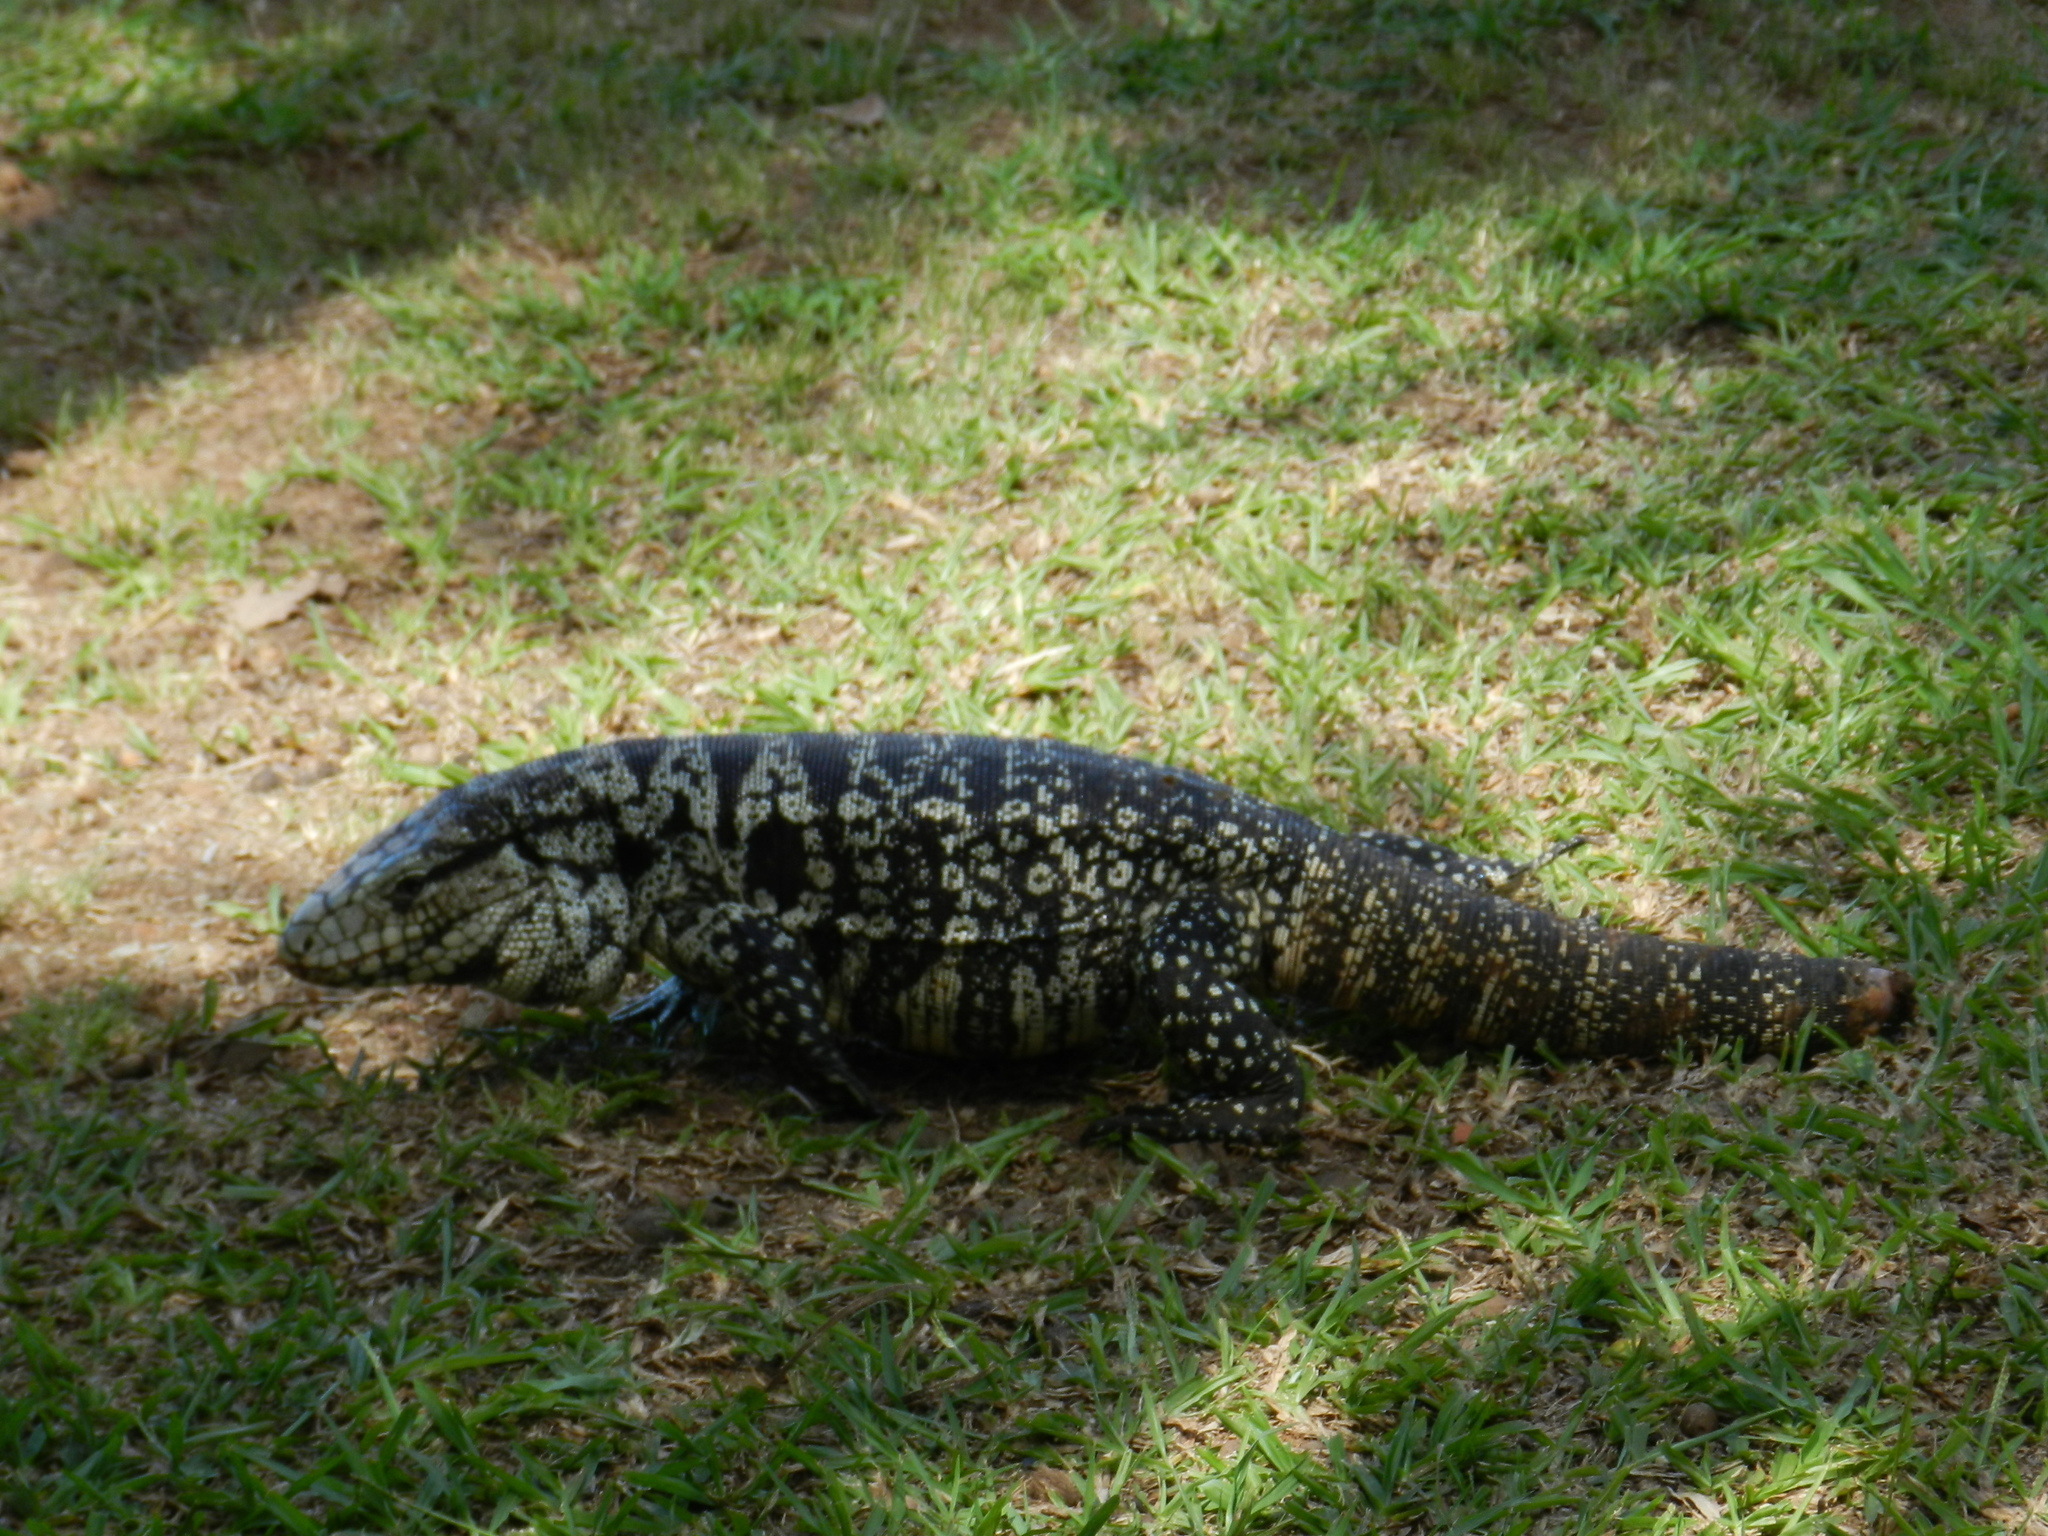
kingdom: Animalia
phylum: Chordata
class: Squamata
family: Teiidae
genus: Salvator
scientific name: Salvator merianae
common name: Argentine black and white tegu
